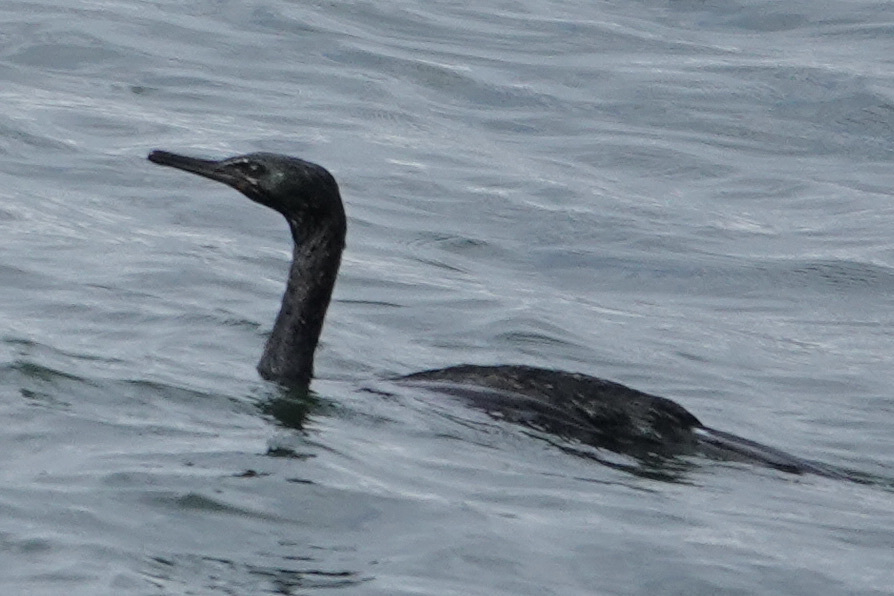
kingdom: Animalia
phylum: Chordata
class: Aves
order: Suliformes
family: Phalacrocoracidae
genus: Phalacrocorax
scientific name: Phalacrocorax pelagicus
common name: Pelagic cormorant
